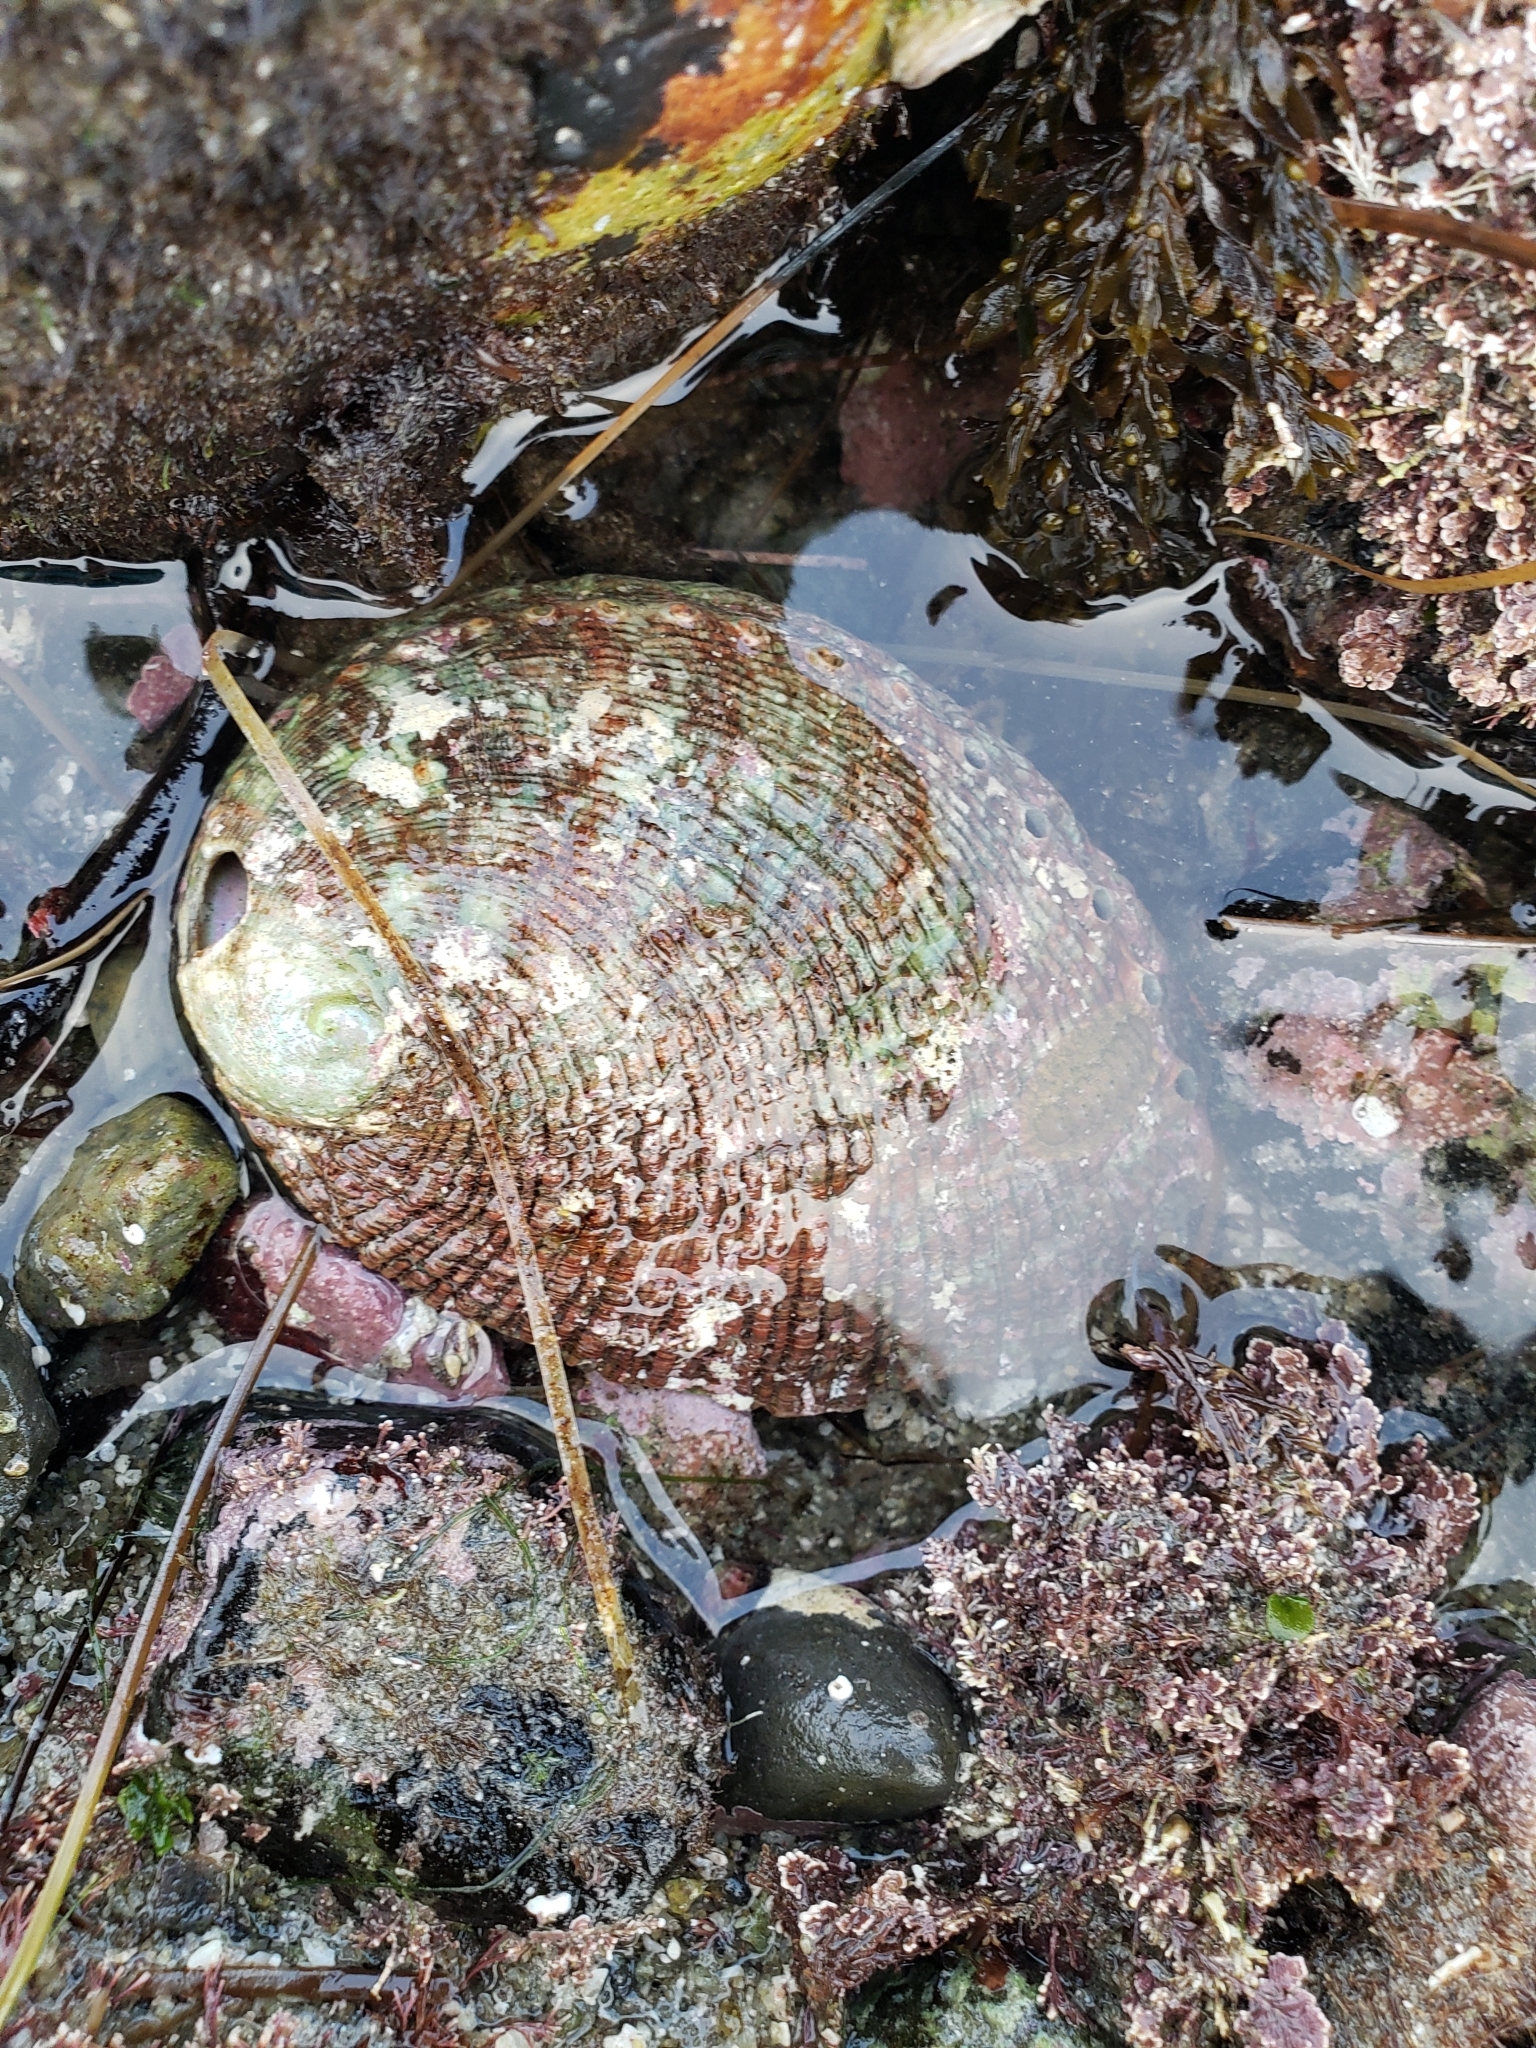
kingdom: Animalia
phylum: Mollusca
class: Gastropoda
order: Lepetellida
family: Haliotidae
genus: Haliotis
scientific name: Haliotis fulgens
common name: Green abalone
